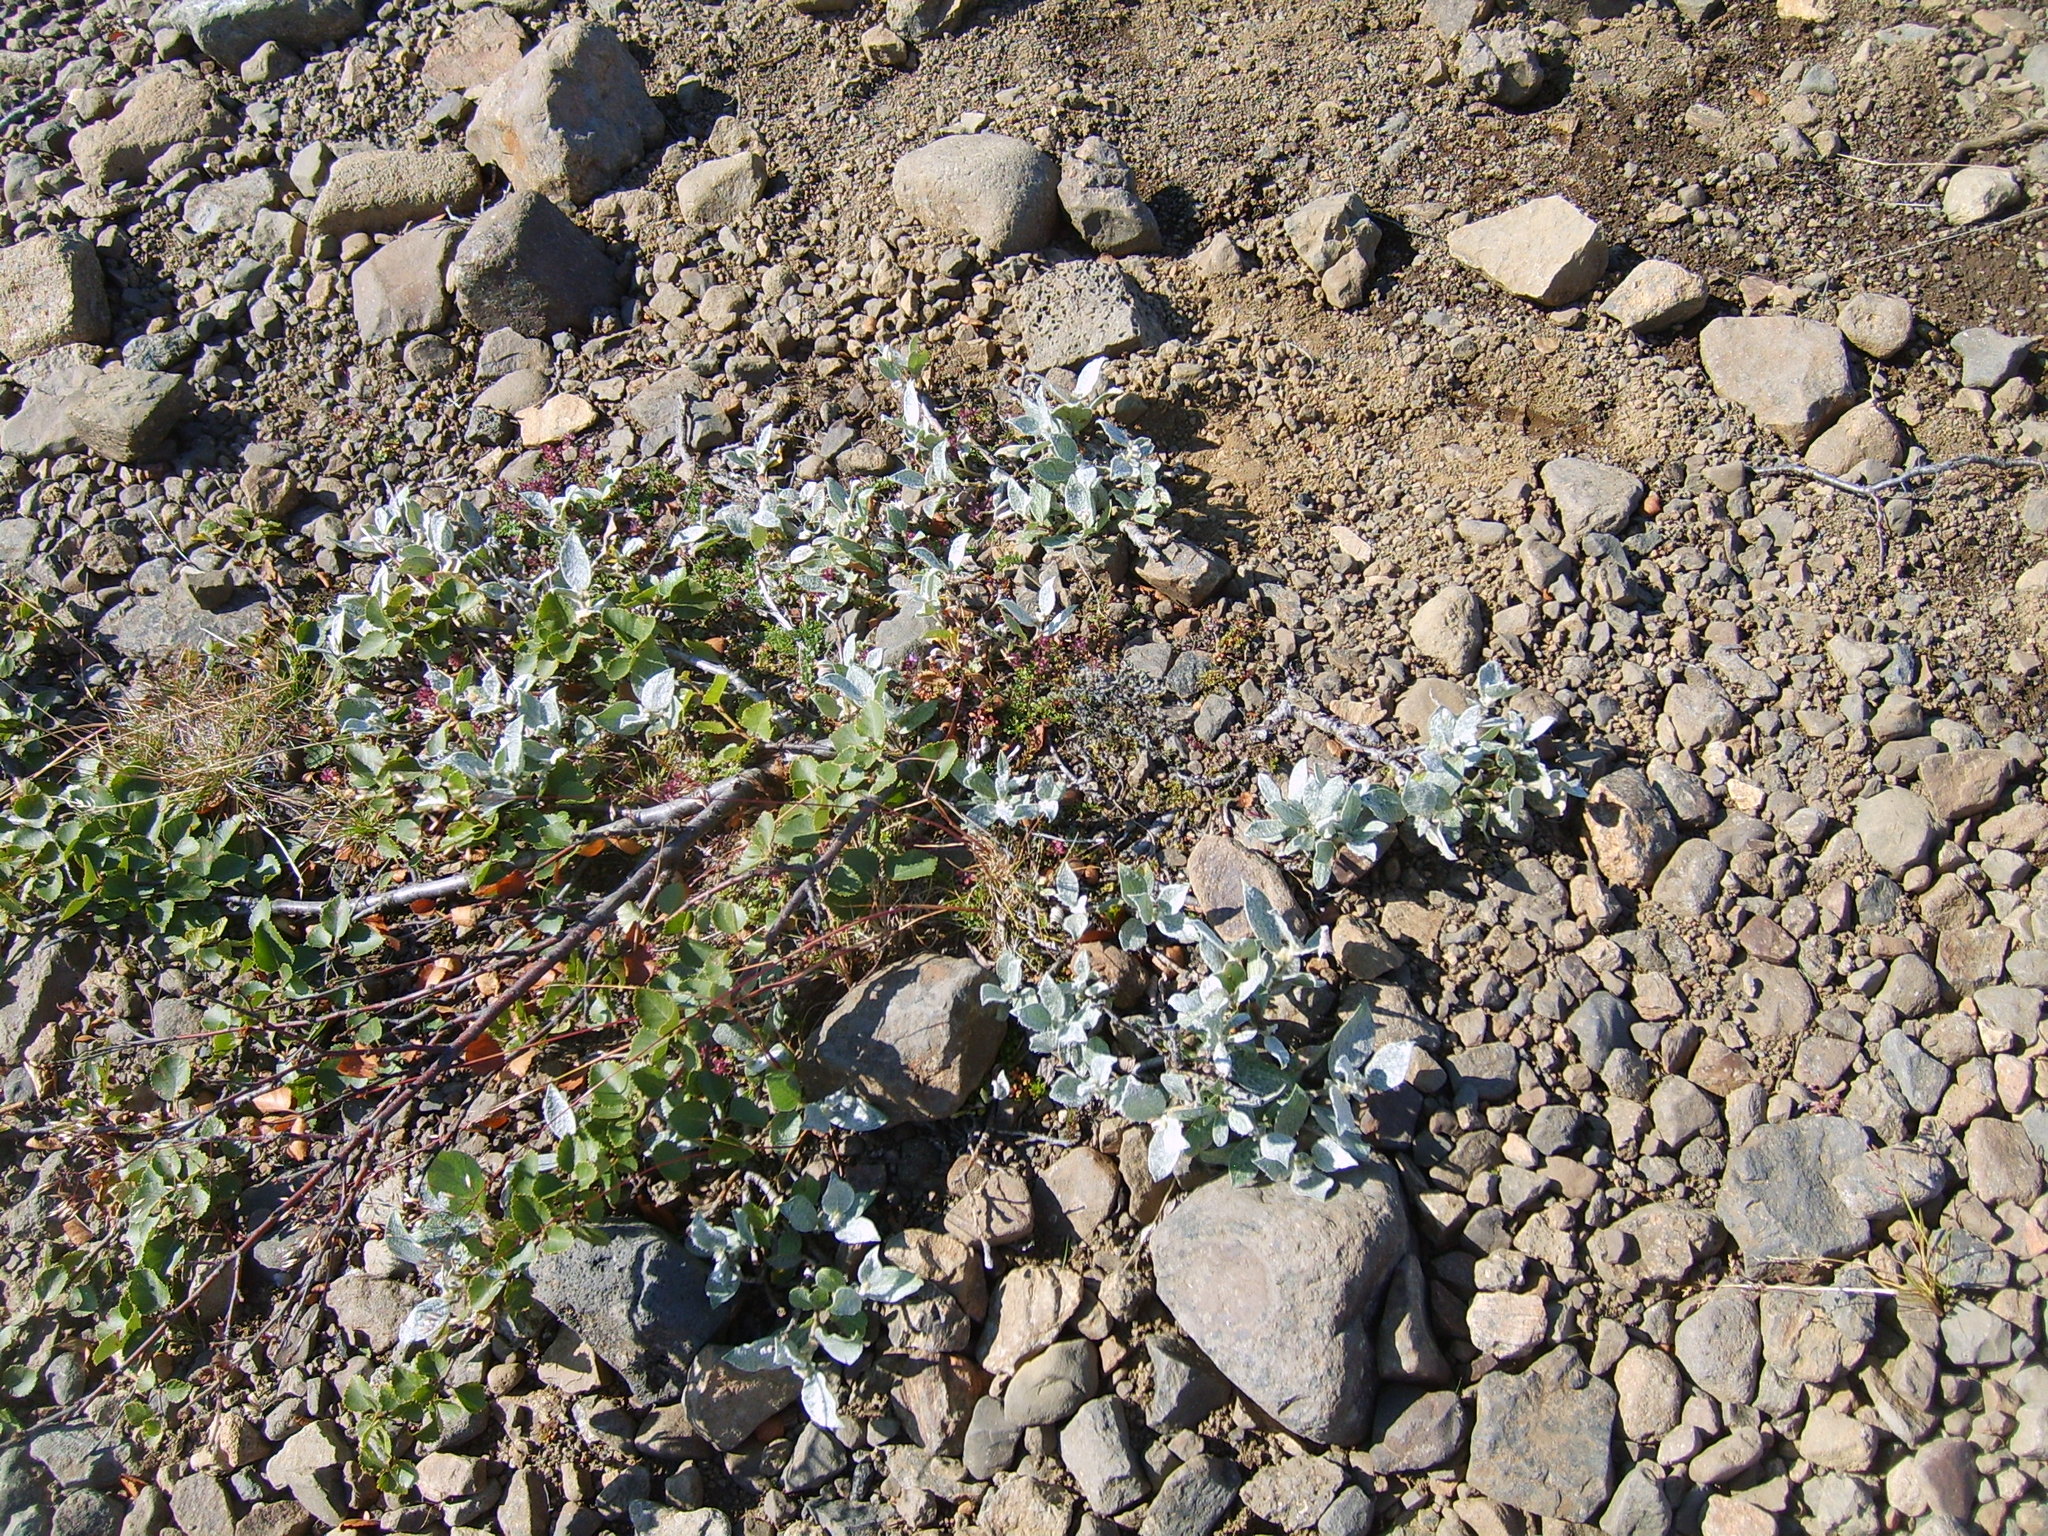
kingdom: Plantae
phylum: Tracheophyta
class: Magnoliopsida
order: Fagales
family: Betulaceae
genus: Betula
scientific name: Betula nana
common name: Arctic dwarf birch
